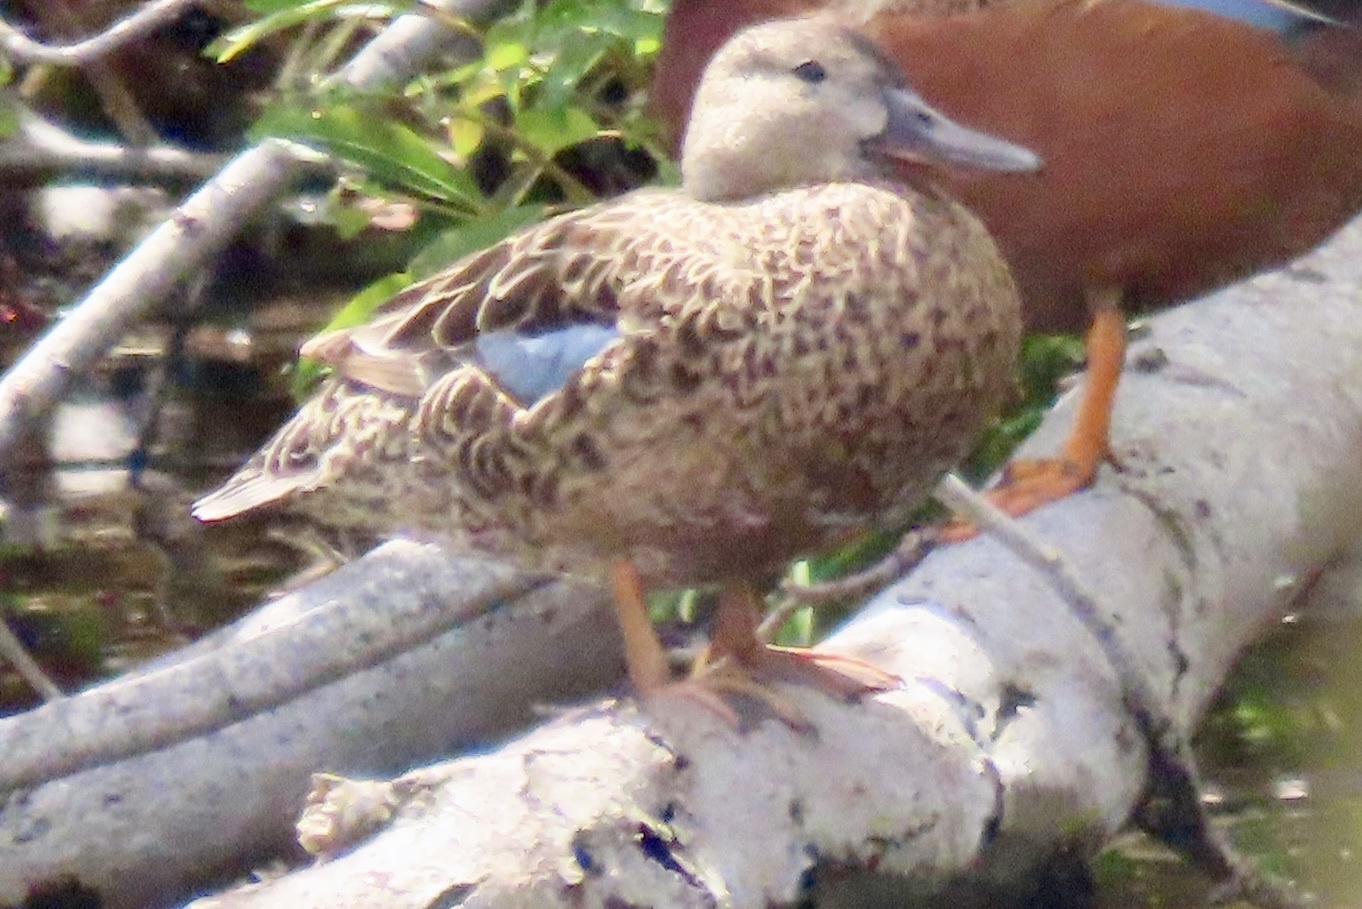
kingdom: Animalia
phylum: Chordata
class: Aves
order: Anseriformes
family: Anatidae
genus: Spatula
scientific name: Spatula cyanoptera
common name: Cinnamon teal
